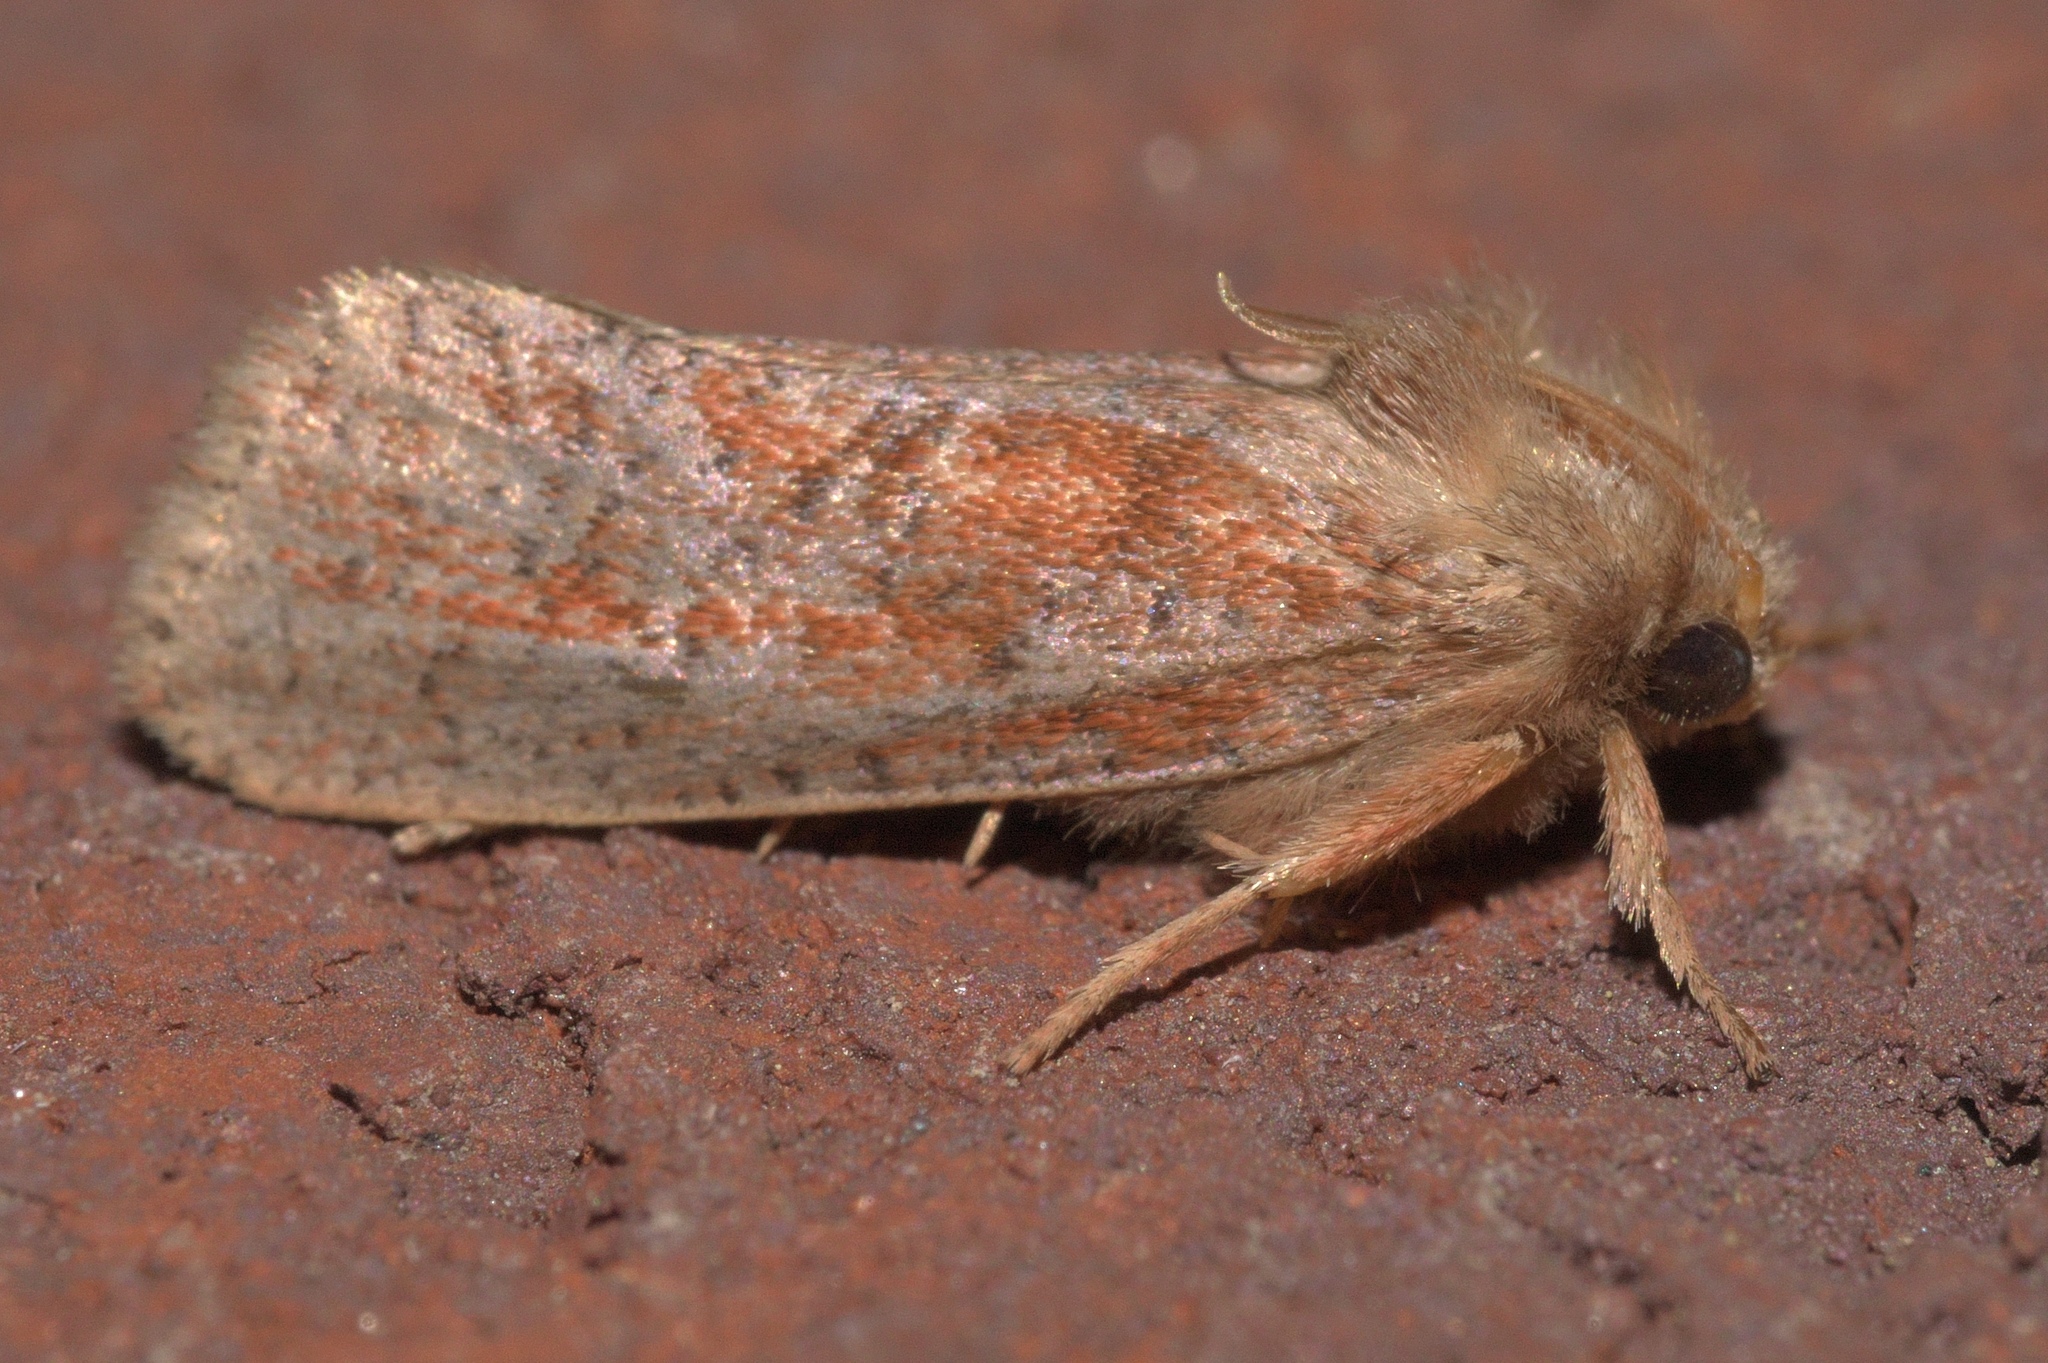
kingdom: Animalia
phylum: Arthropoda
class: Insecta
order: Lepidoptera
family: Tineidae
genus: Acrolophus
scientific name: Acrolophus plumifrontella
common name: Eastern grass tubeworm moth
